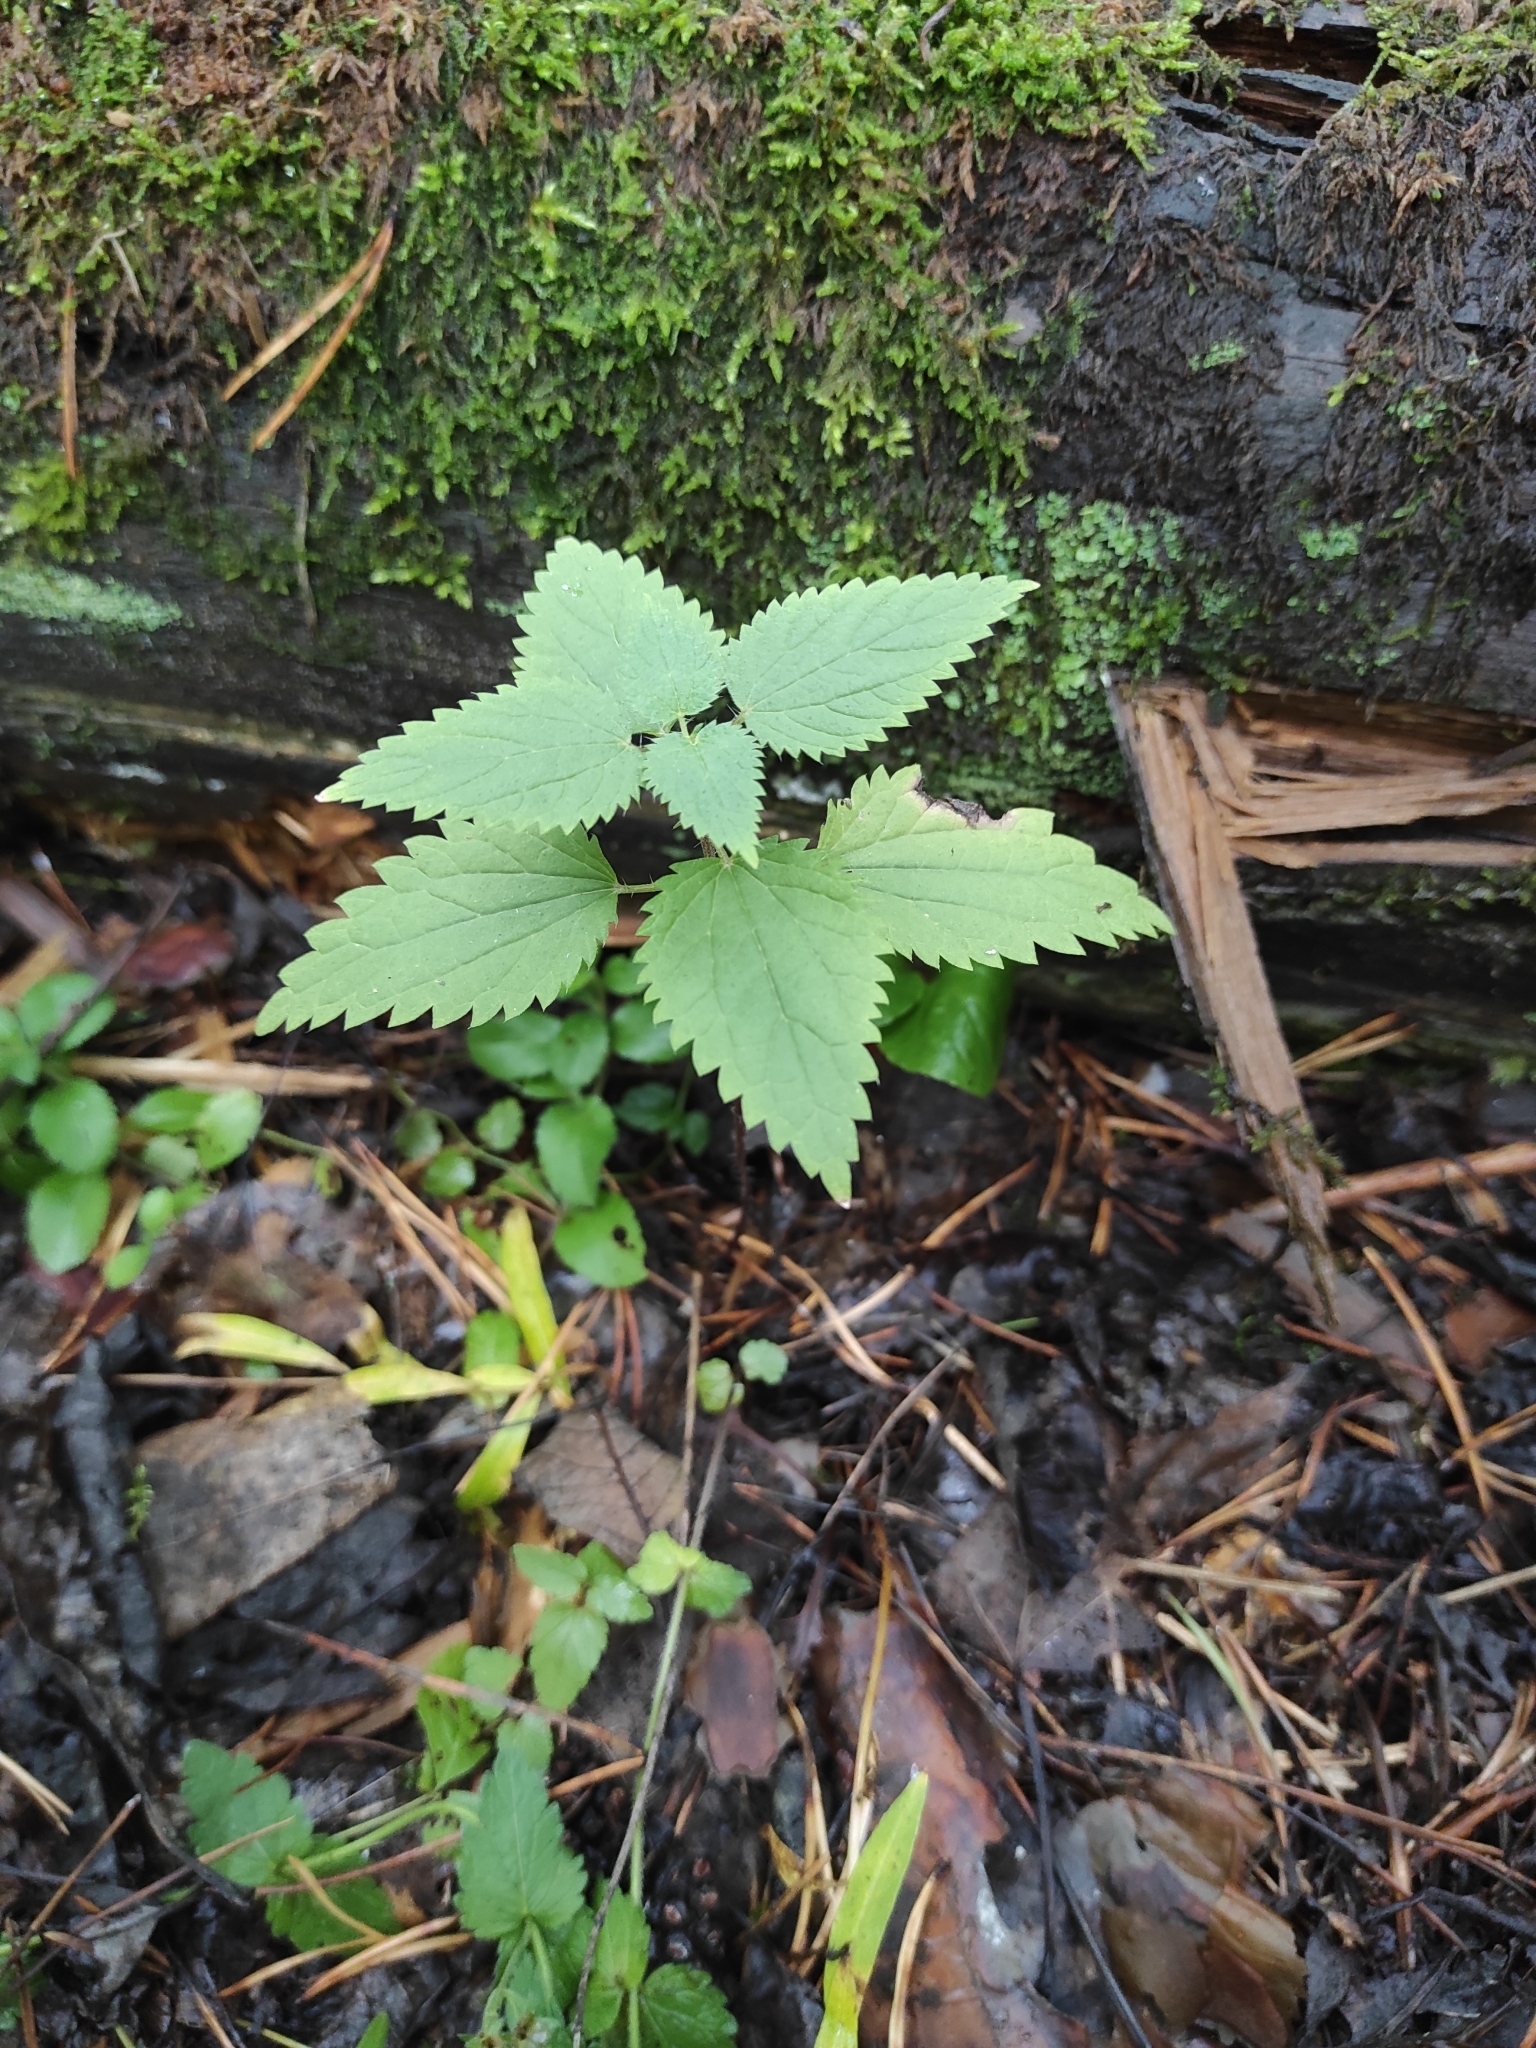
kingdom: Plantae
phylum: Tracheophyta
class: Magnoliopsida
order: Rosales
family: Urticaceae
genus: Urtica
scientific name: Urtica dioica
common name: Common nettle
